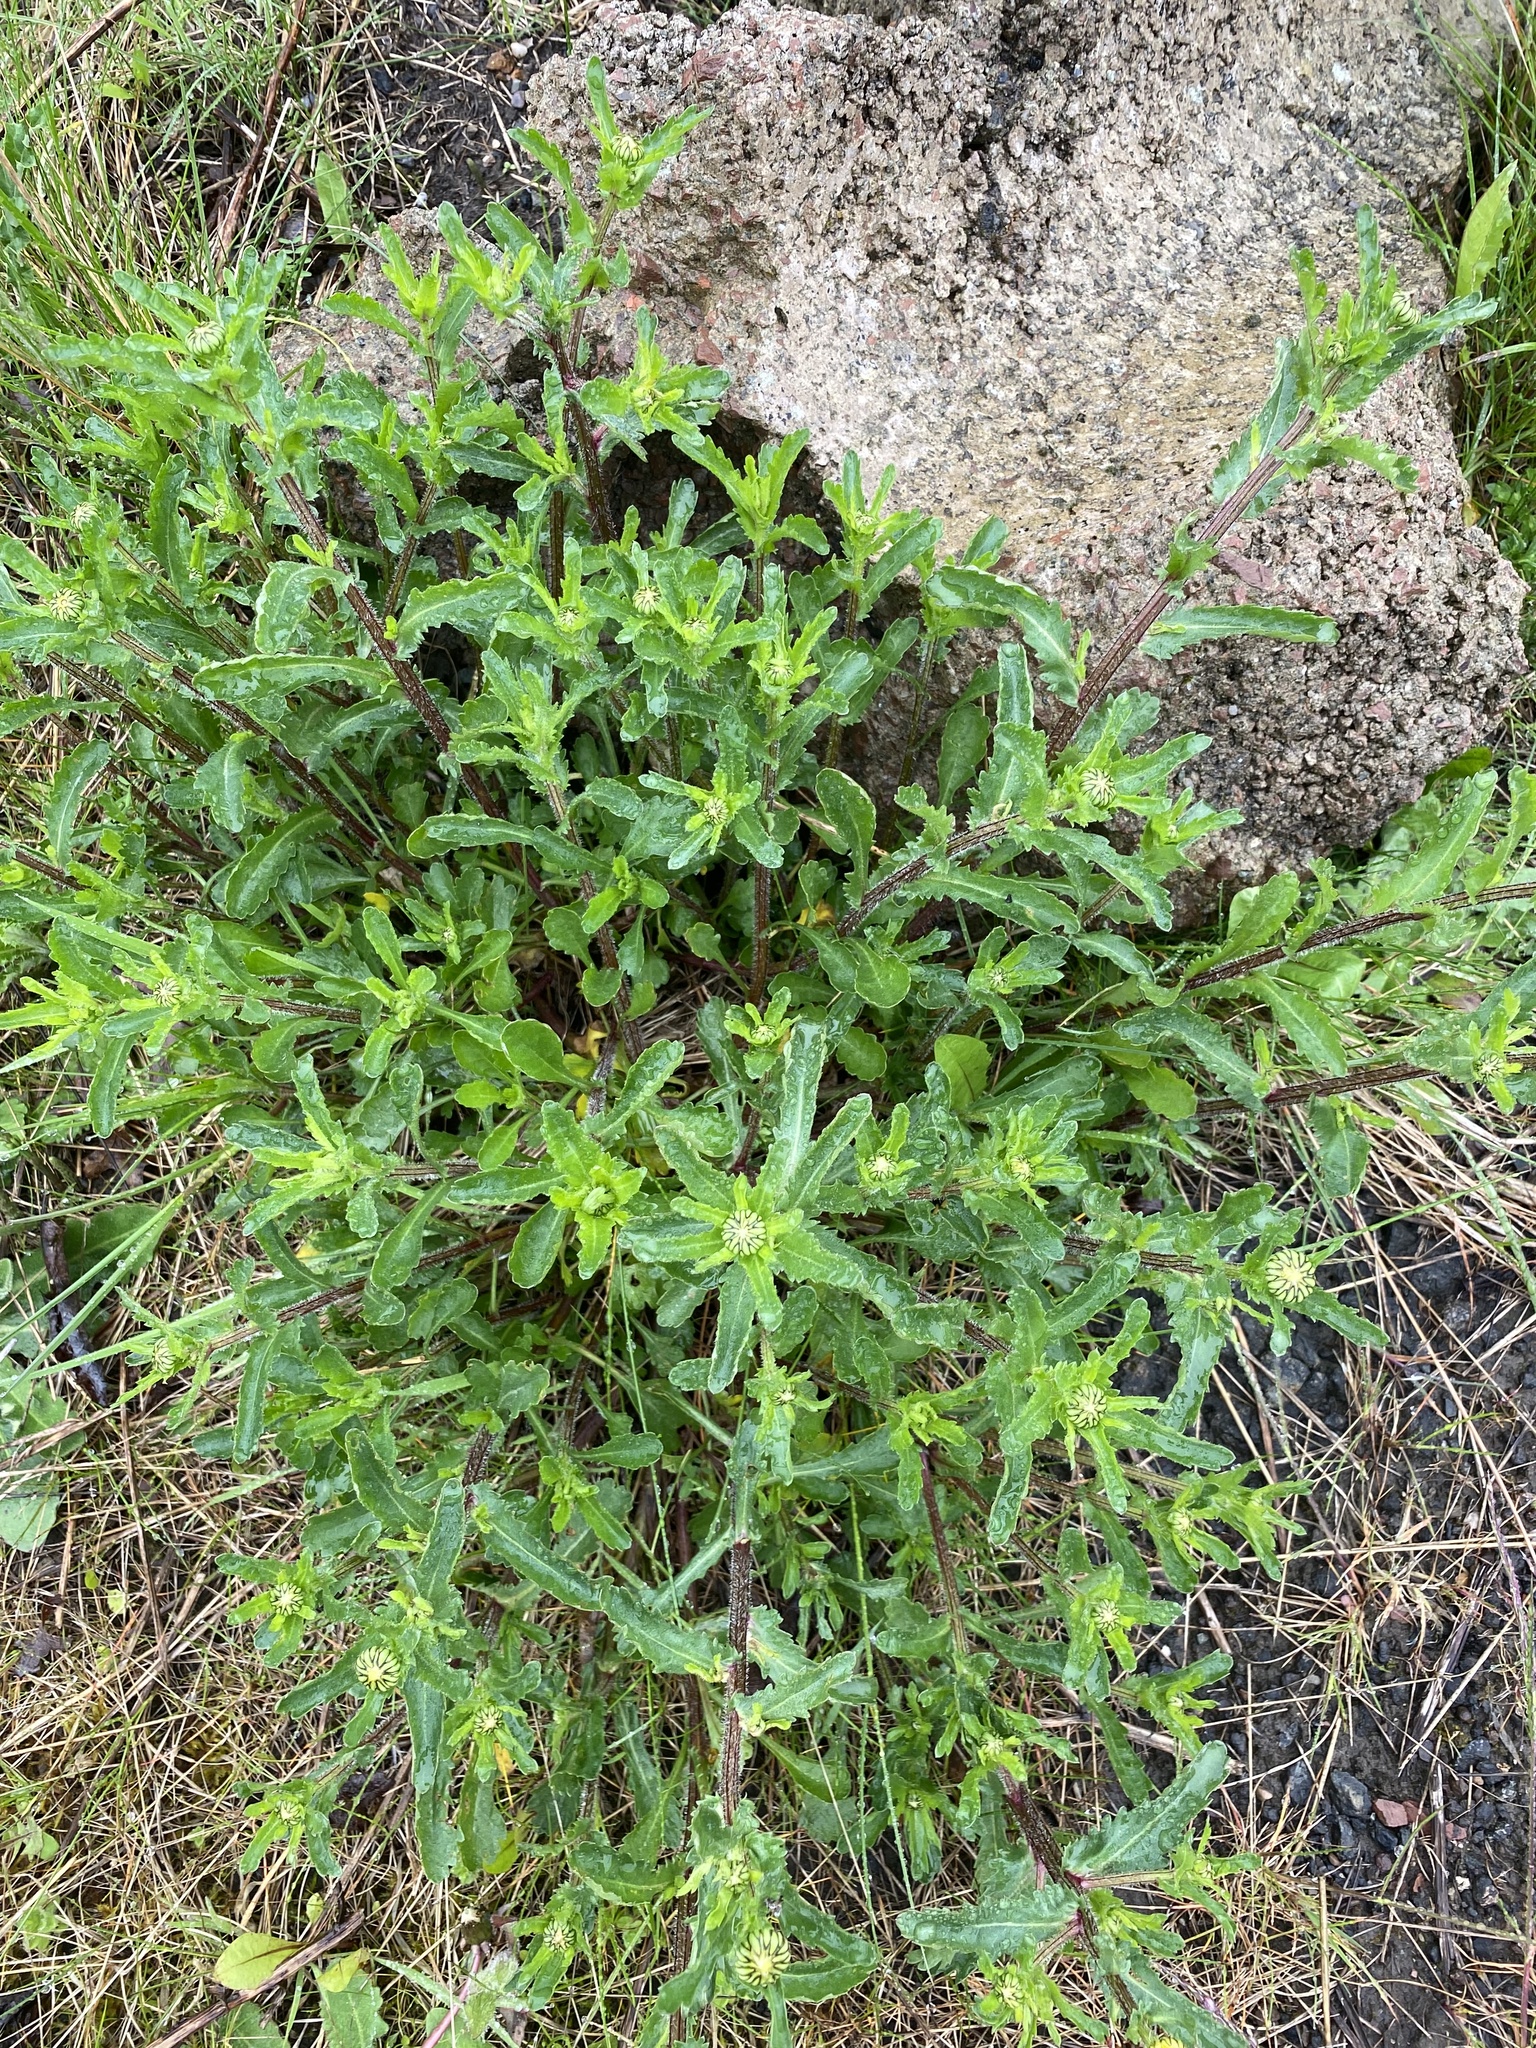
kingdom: Plantae
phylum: Tracheophyta
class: Magnoliopsida
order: Asterales
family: Asteraceae
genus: Leucanthemum
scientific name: Leucanthemum vulgare
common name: Oxeye daisy
